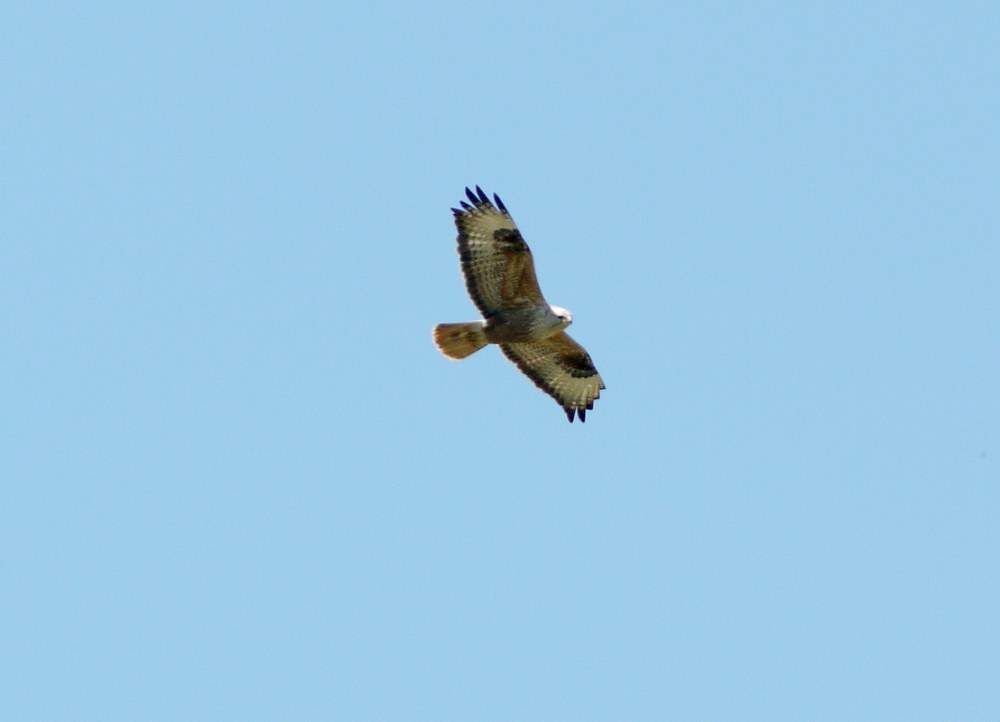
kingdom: Animalia
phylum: Chordata
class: Aves
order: Accipitriformes
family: Accipitridae
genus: Buteo
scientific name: Buteo rufinus
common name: Long-legged buzzard
